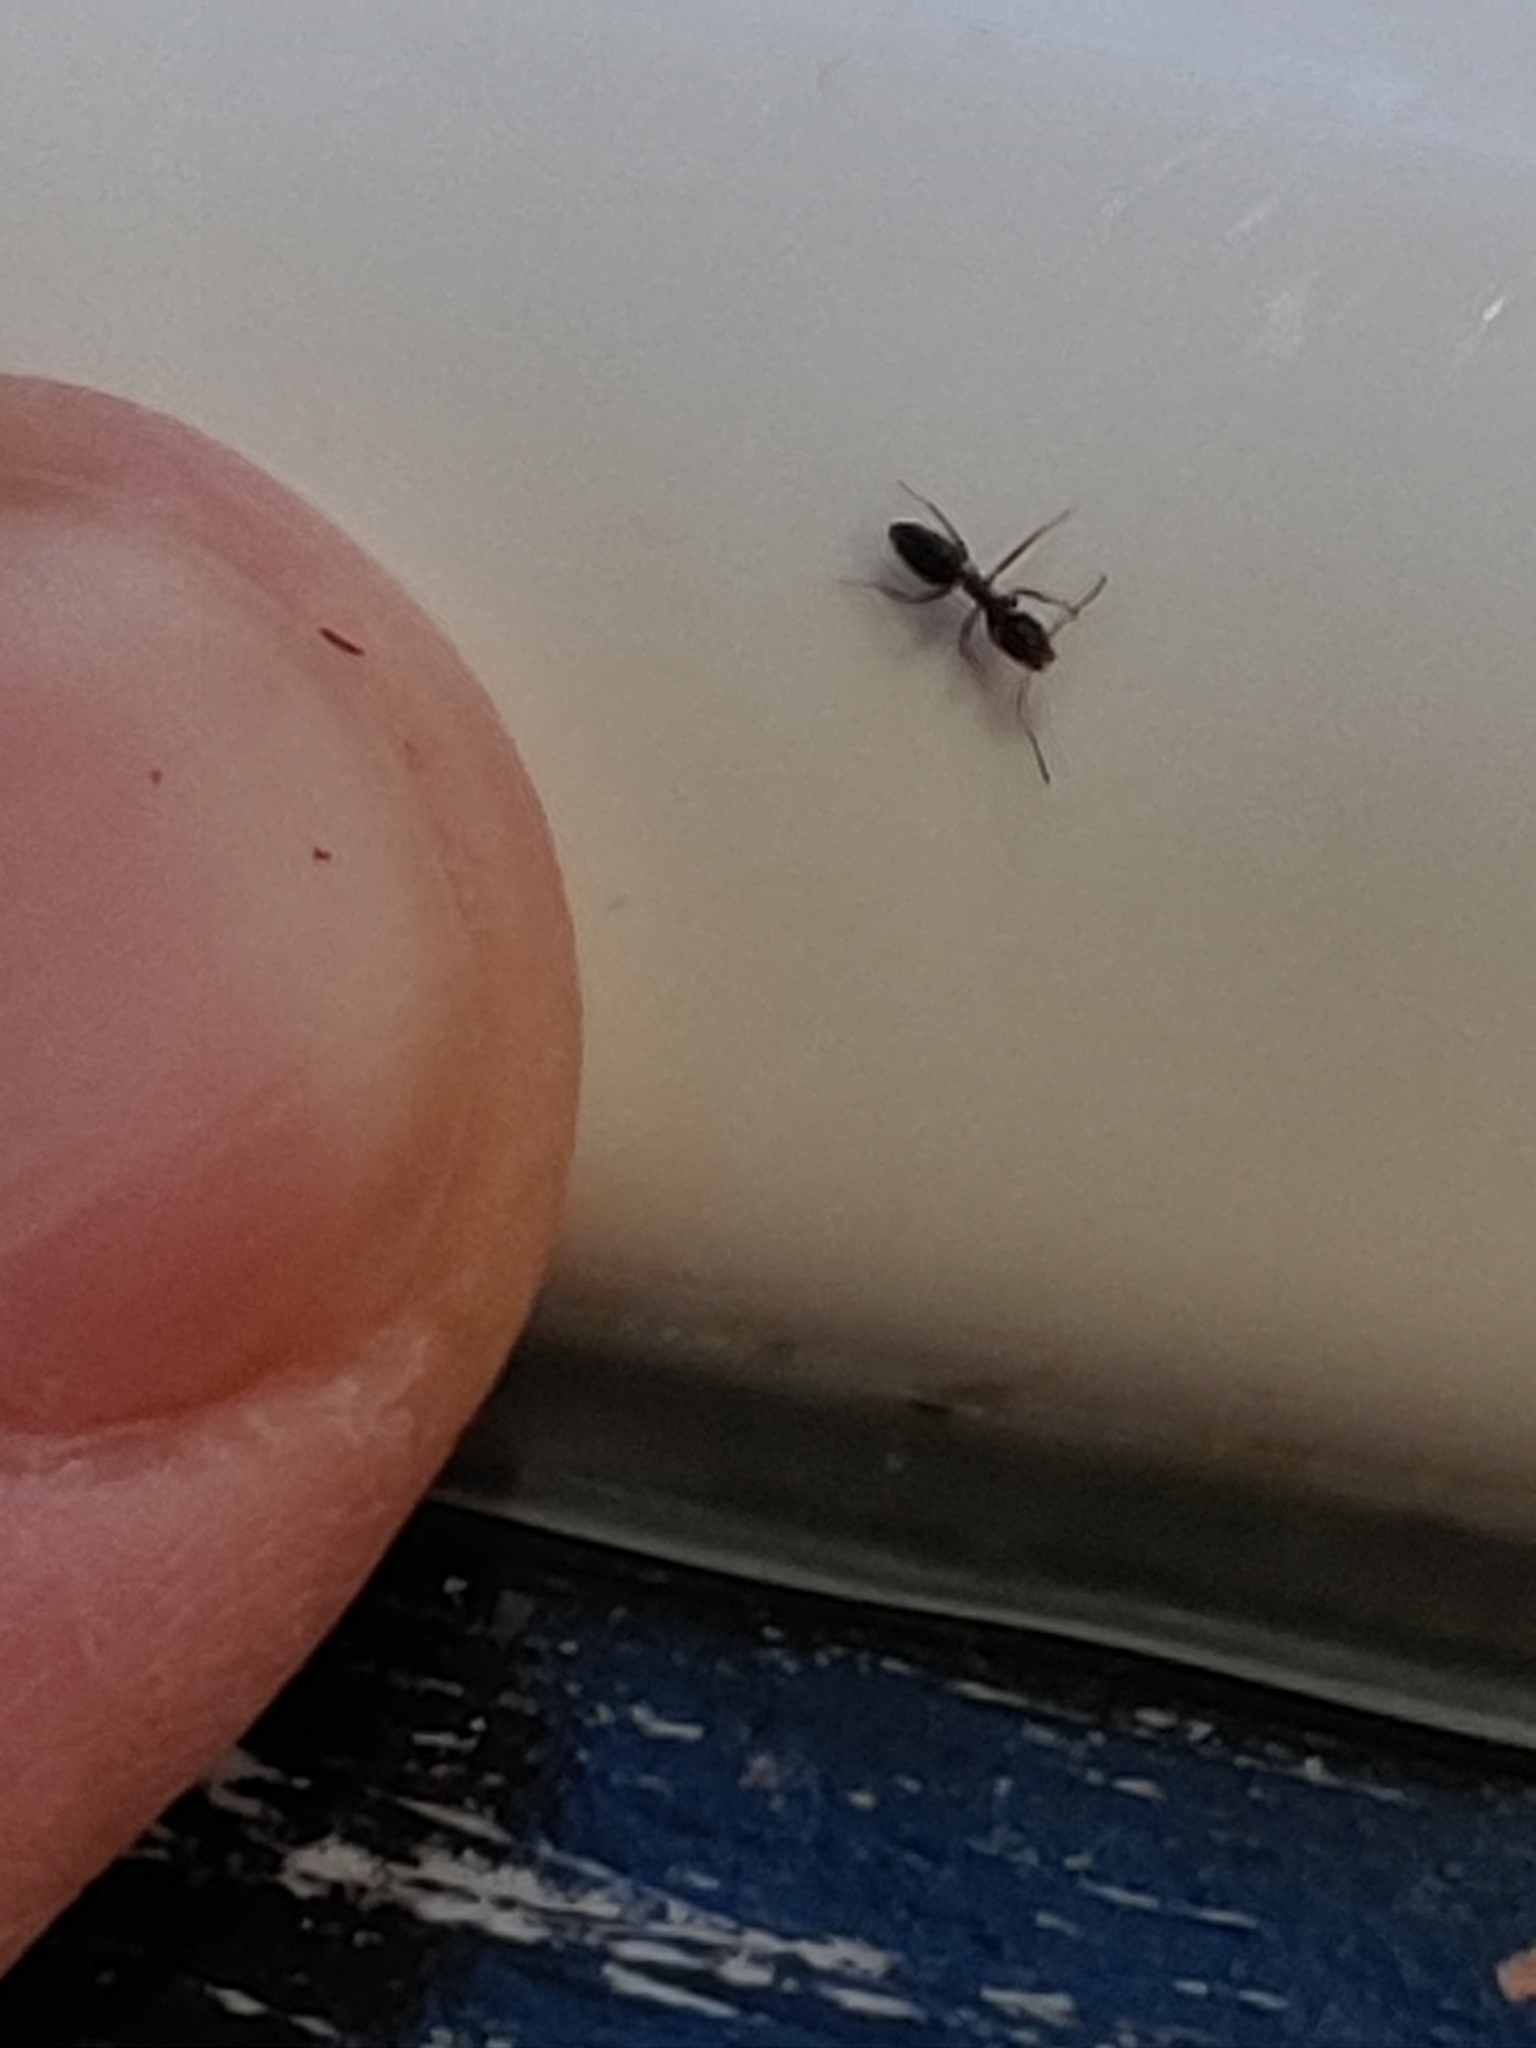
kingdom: Animalia
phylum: Arthropoda
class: Insecta
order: Hymenoptera
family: Formicidae
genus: Tapinoma
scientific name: Tapinoma sessile
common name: Odorous house ant
